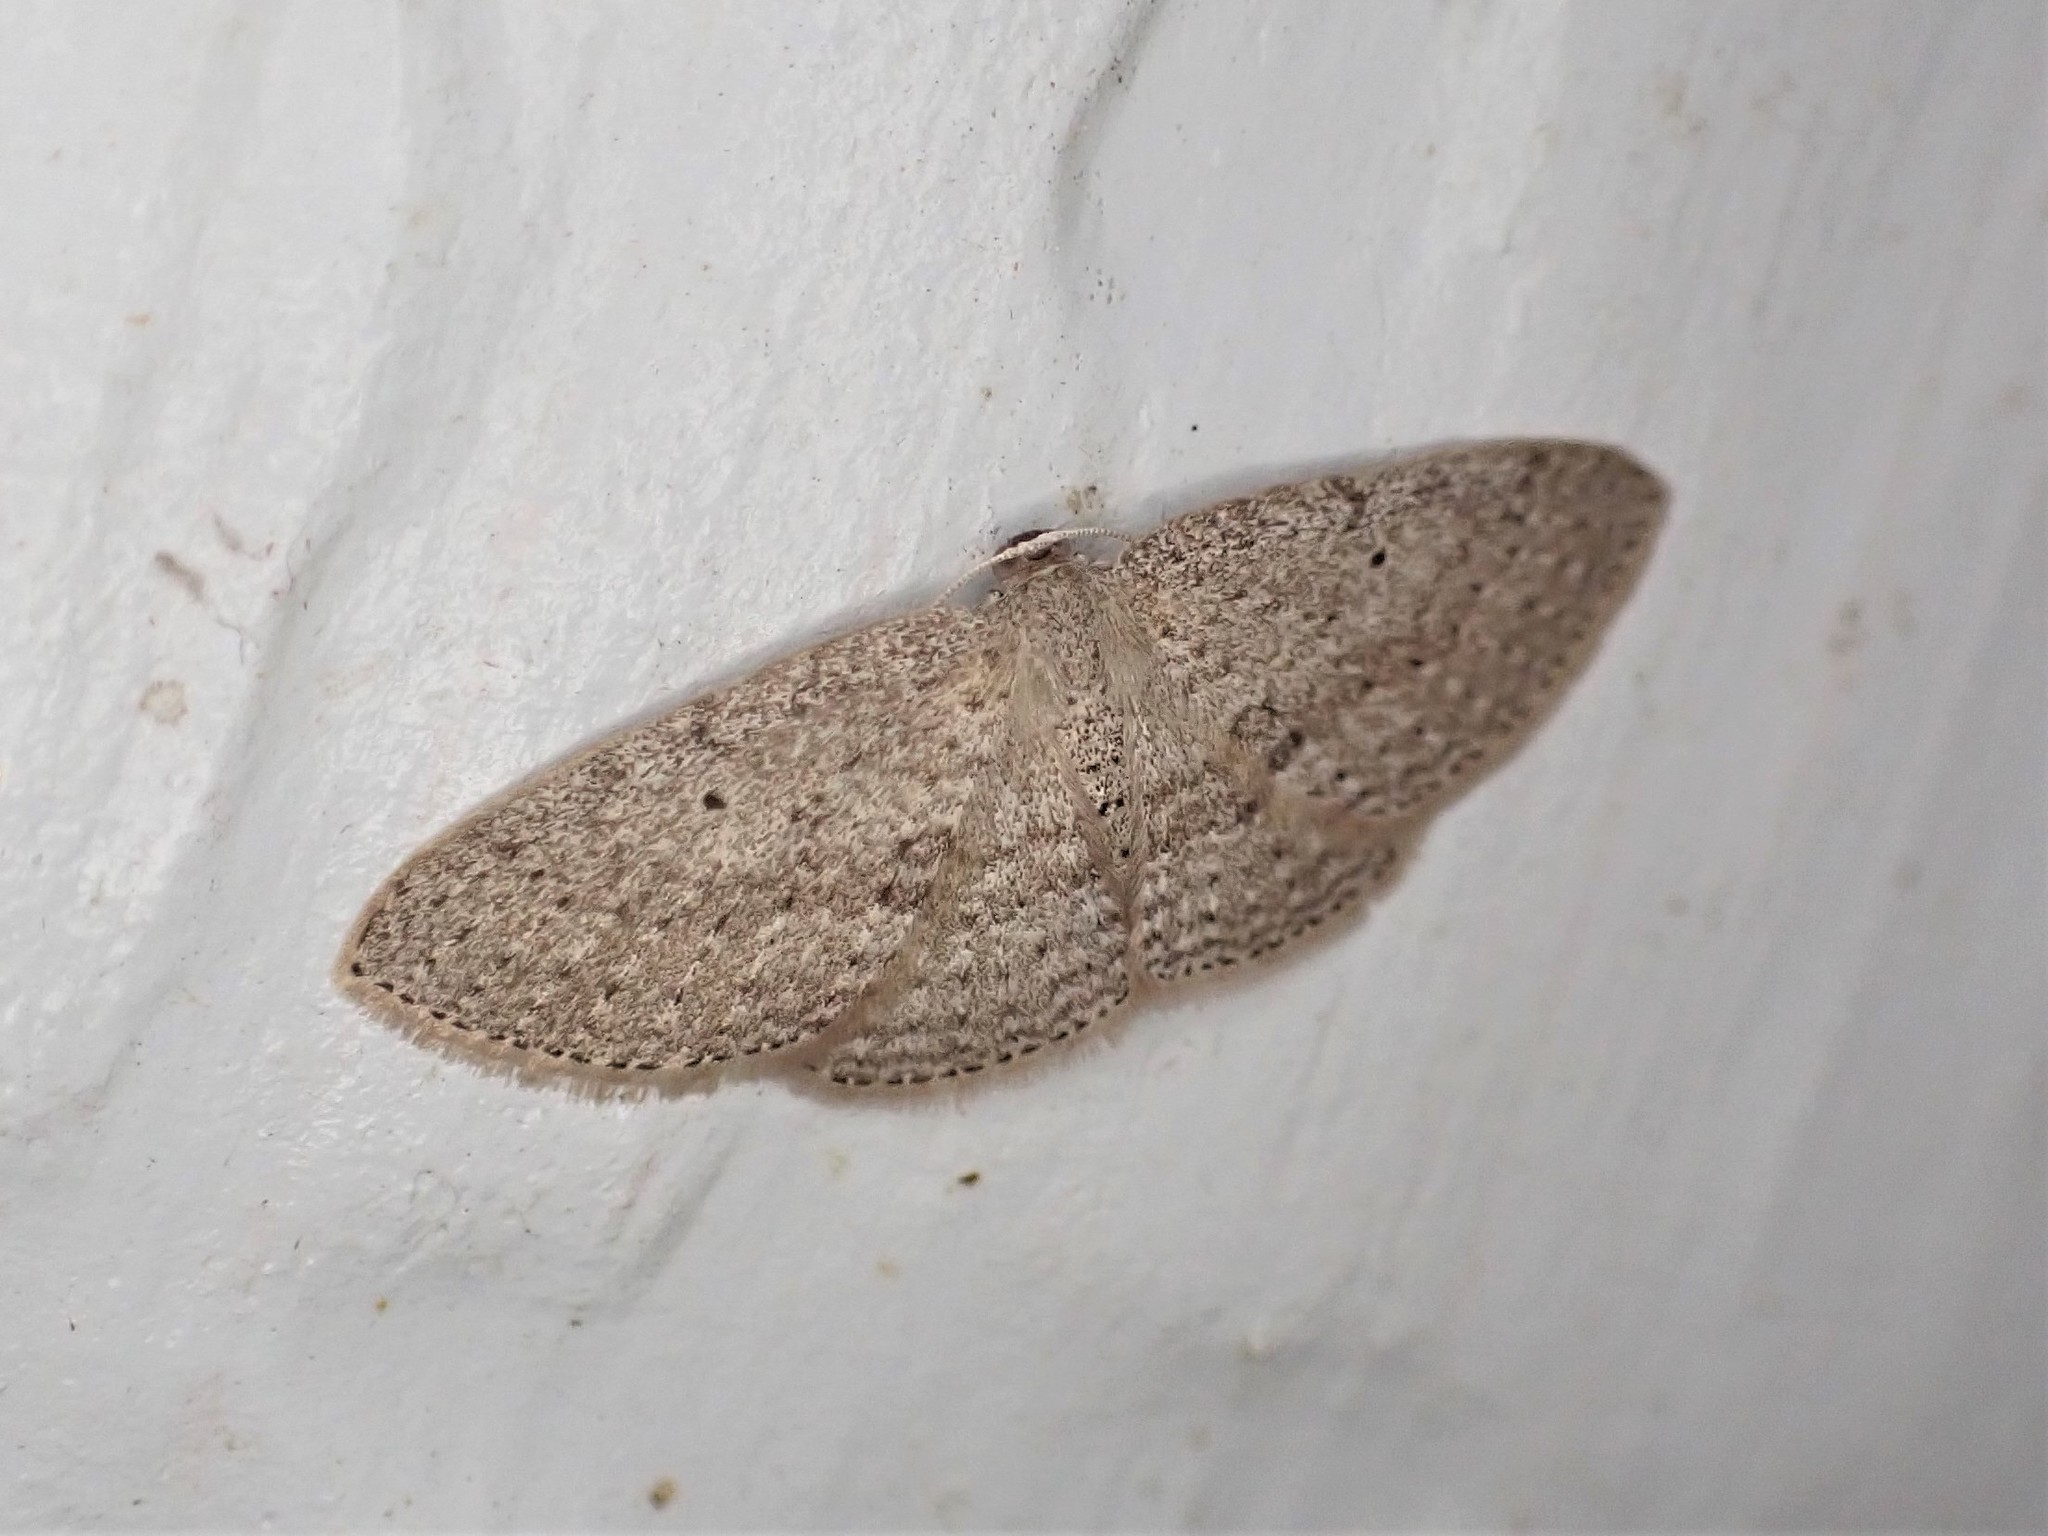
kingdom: Animalia
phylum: Arthropoda
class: Insecta
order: Lepidoptera
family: Geometridae
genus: Poecilasthena
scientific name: Poecilasthena schistaria
